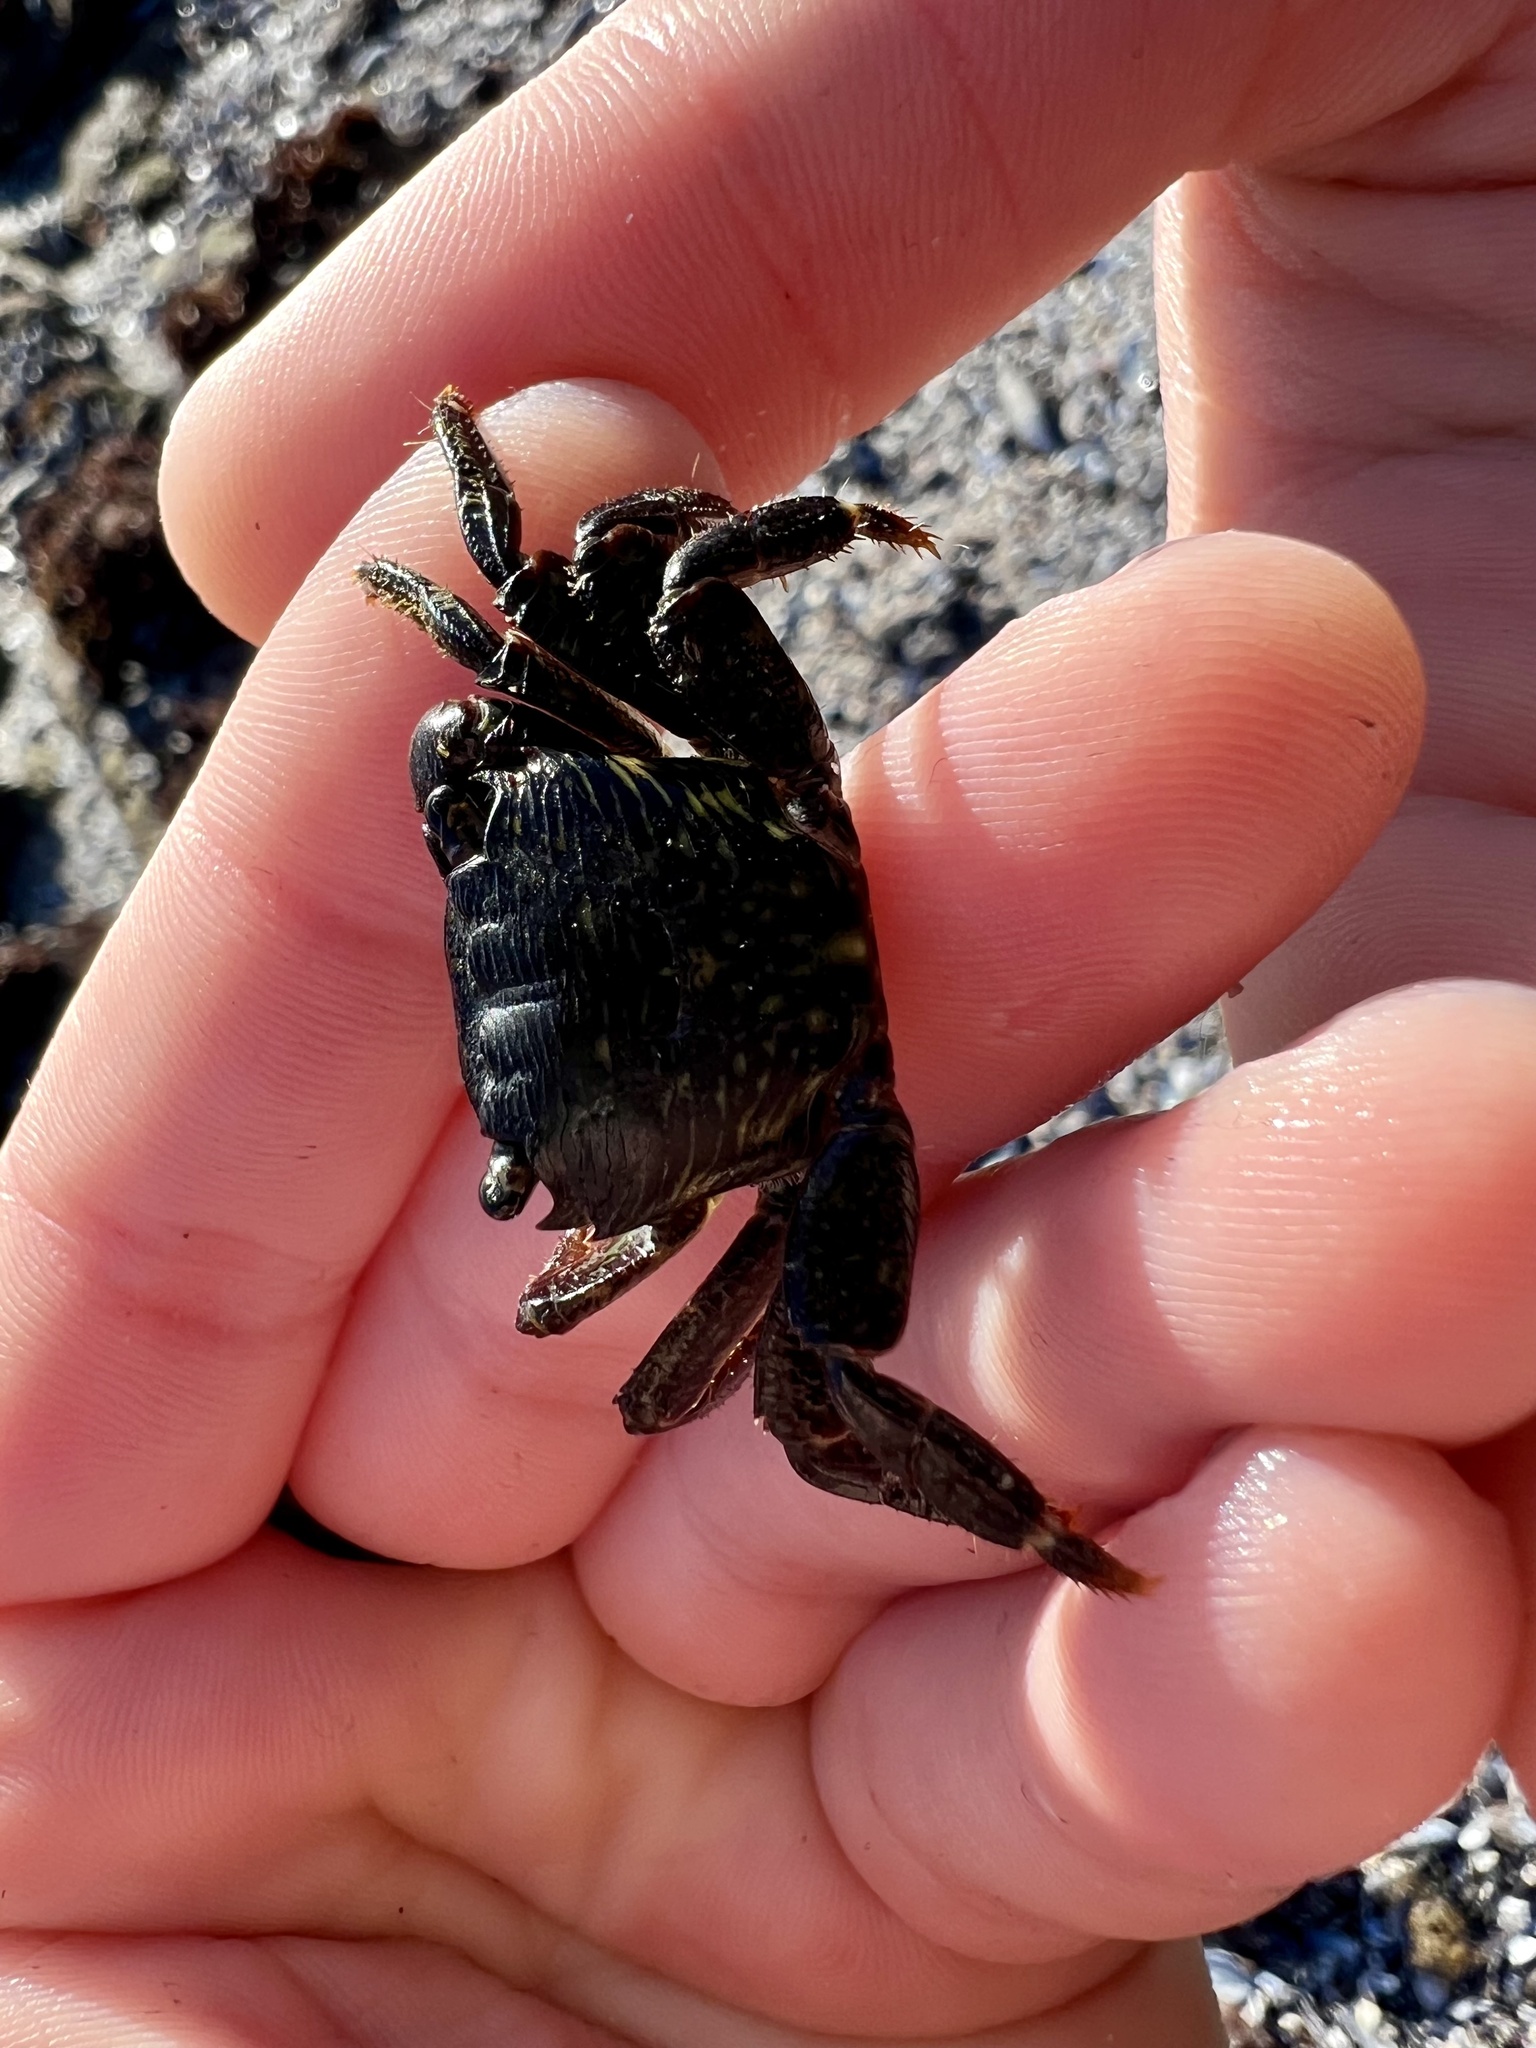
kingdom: Animalia
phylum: Arthropoda
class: Malacostraca
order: Decapoda
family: Grapsidae
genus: Pachygrapsus
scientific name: Pachygrapsus crassipes
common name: Striped shore crab
